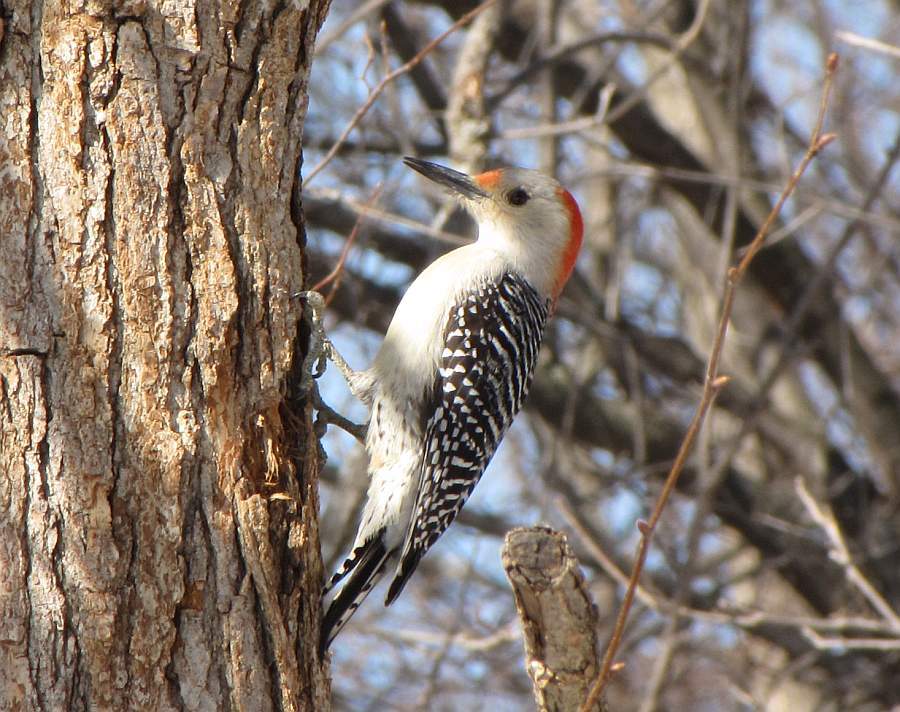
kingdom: Animalia
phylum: Chordata
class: Aves
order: Piciformes
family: Picidae
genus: Melanerpes
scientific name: Melanerpes carolinus
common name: Red-bellied woodpecker
